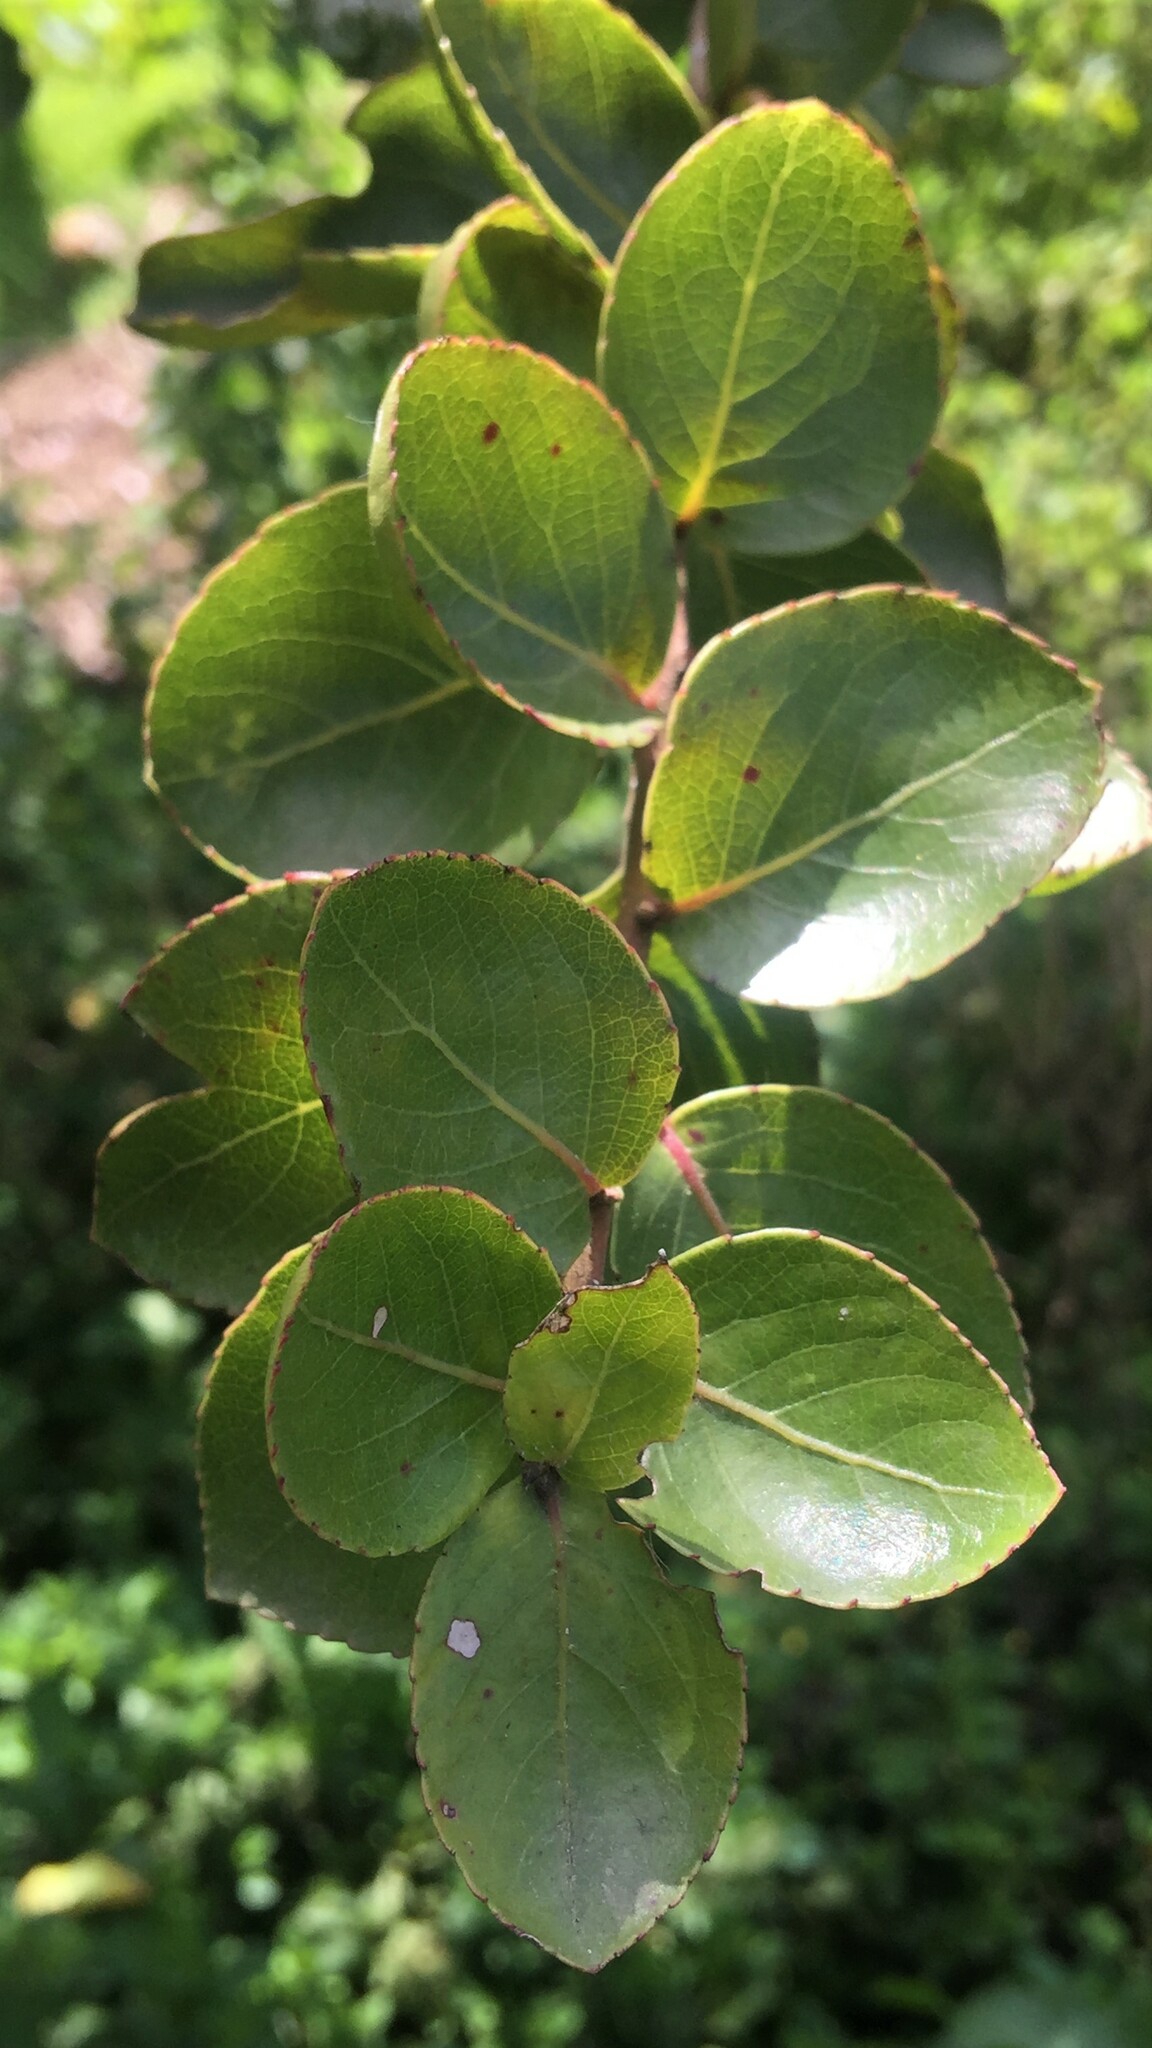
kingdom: Plantae
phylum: Tracheophyta
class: Magnoliopsida
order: Malpighiales
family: Salicaceae
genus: Xylosma
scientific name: Xylosma spiculifera
